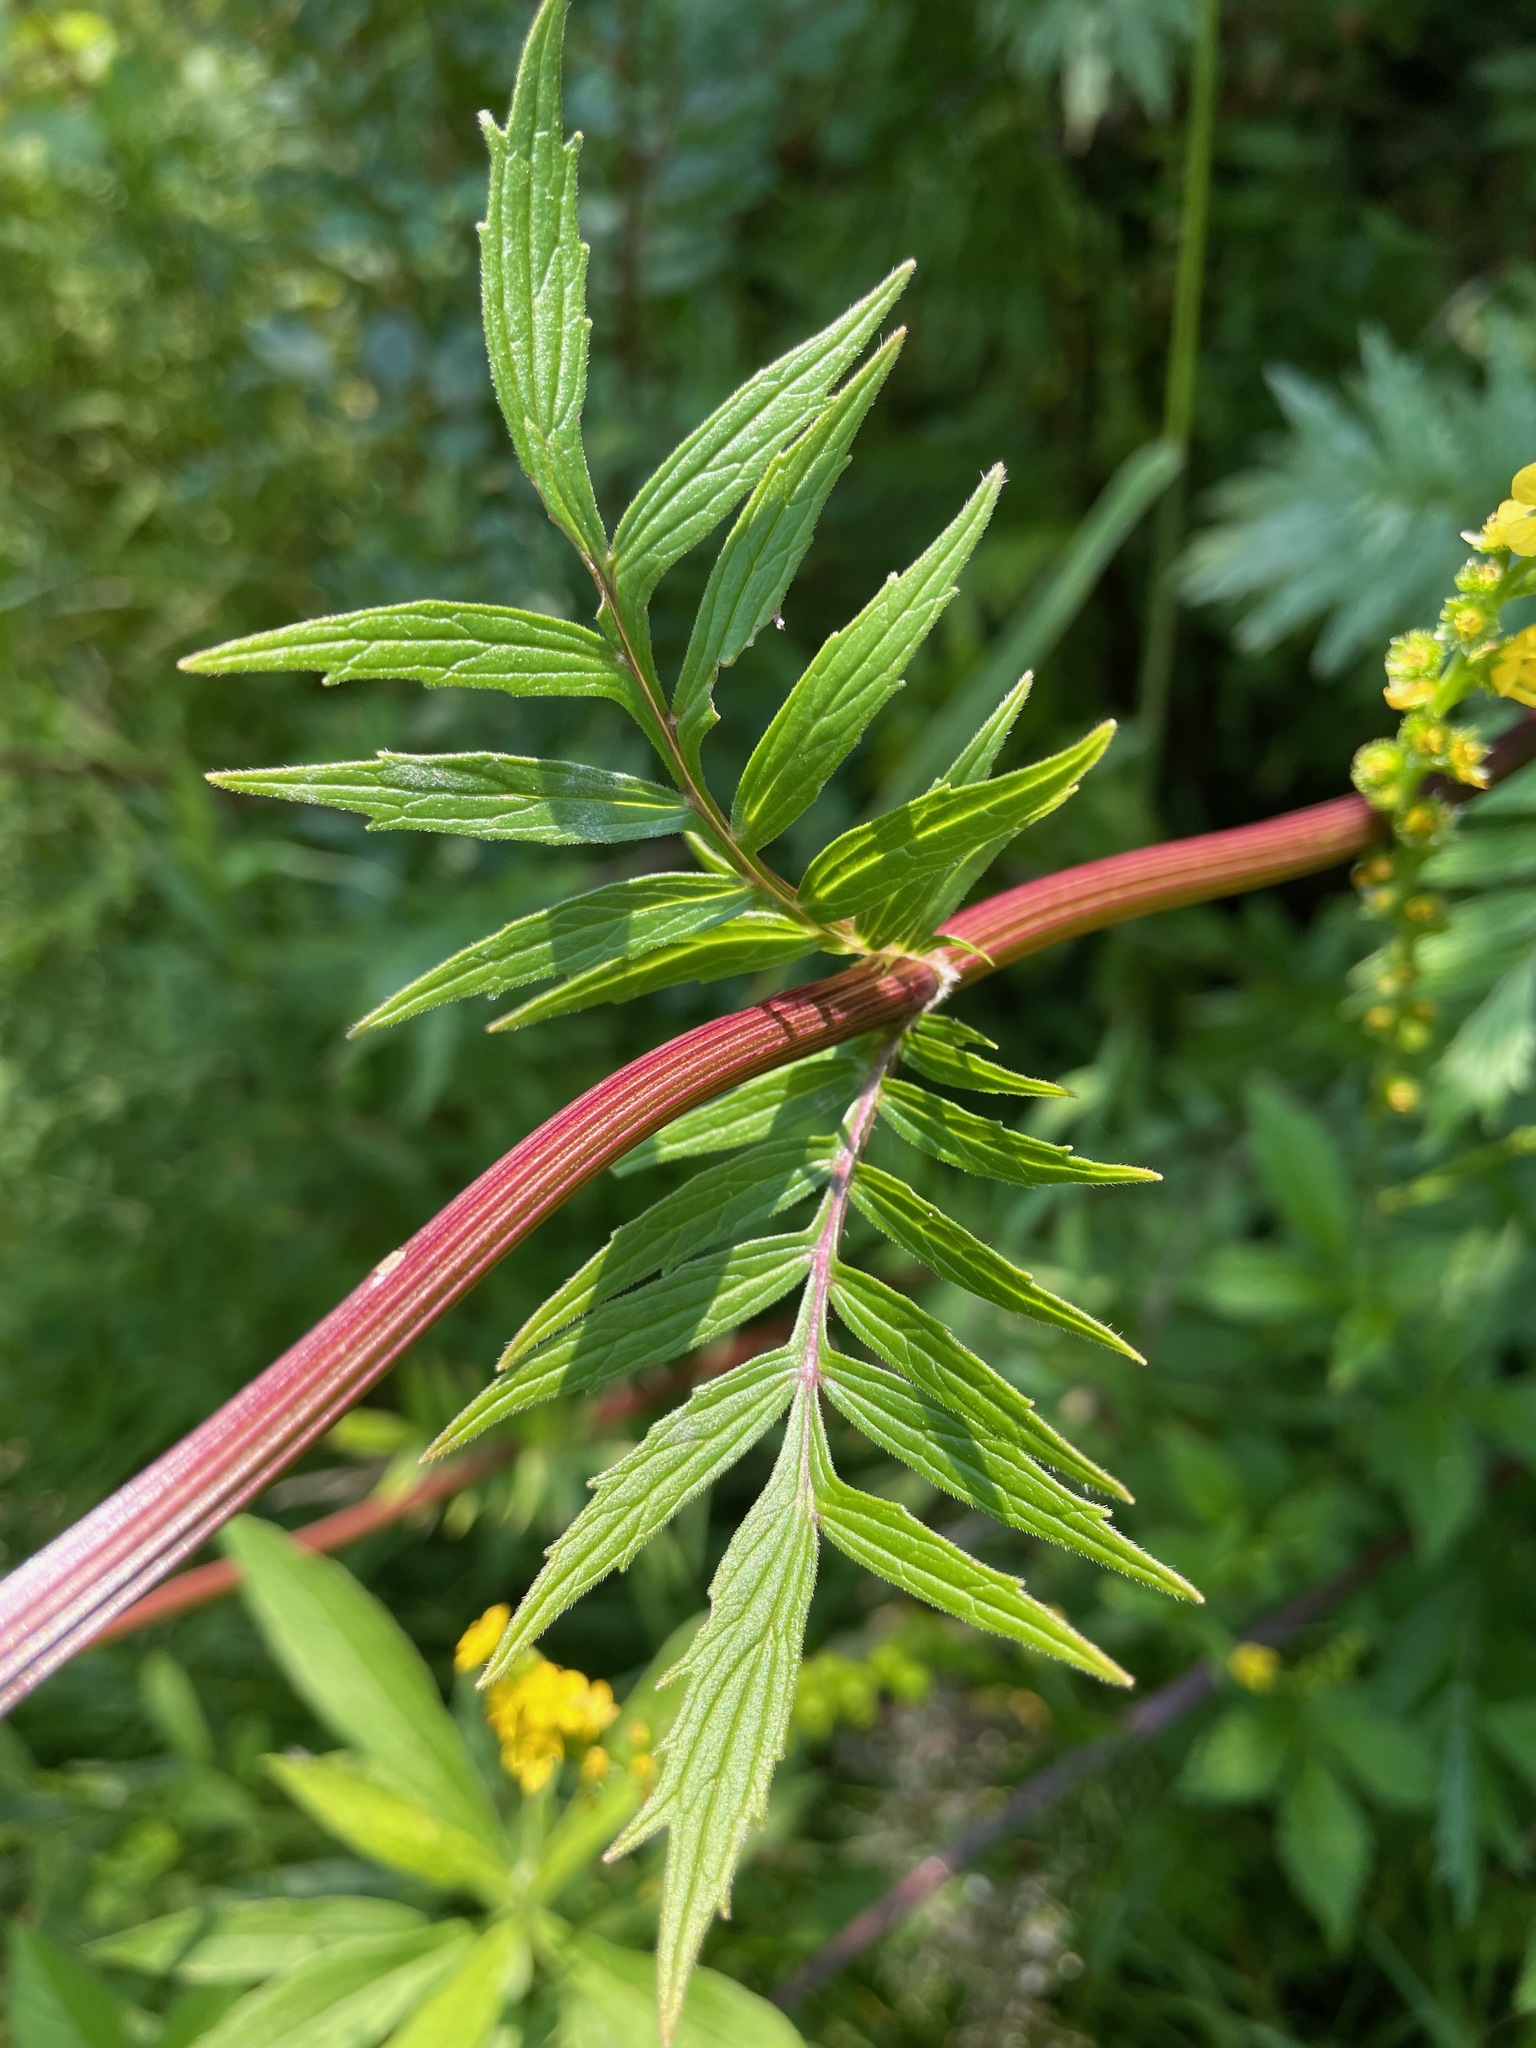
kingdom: Plantae
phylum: Tracheophyta
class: Magnoliopsida
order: Dipsacales
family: Caprifoliaceae
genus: Valeriana
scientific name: Valeriana officinalis
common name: Common valerian
